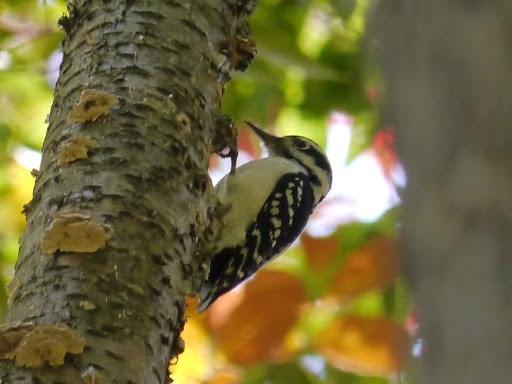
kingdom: Animalia
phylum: Chordata
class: Aves
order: Piciformes
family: Picidae
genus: Leuconotopicus
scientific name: Leuconotopicus villosus
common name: Hairy woodpecker
